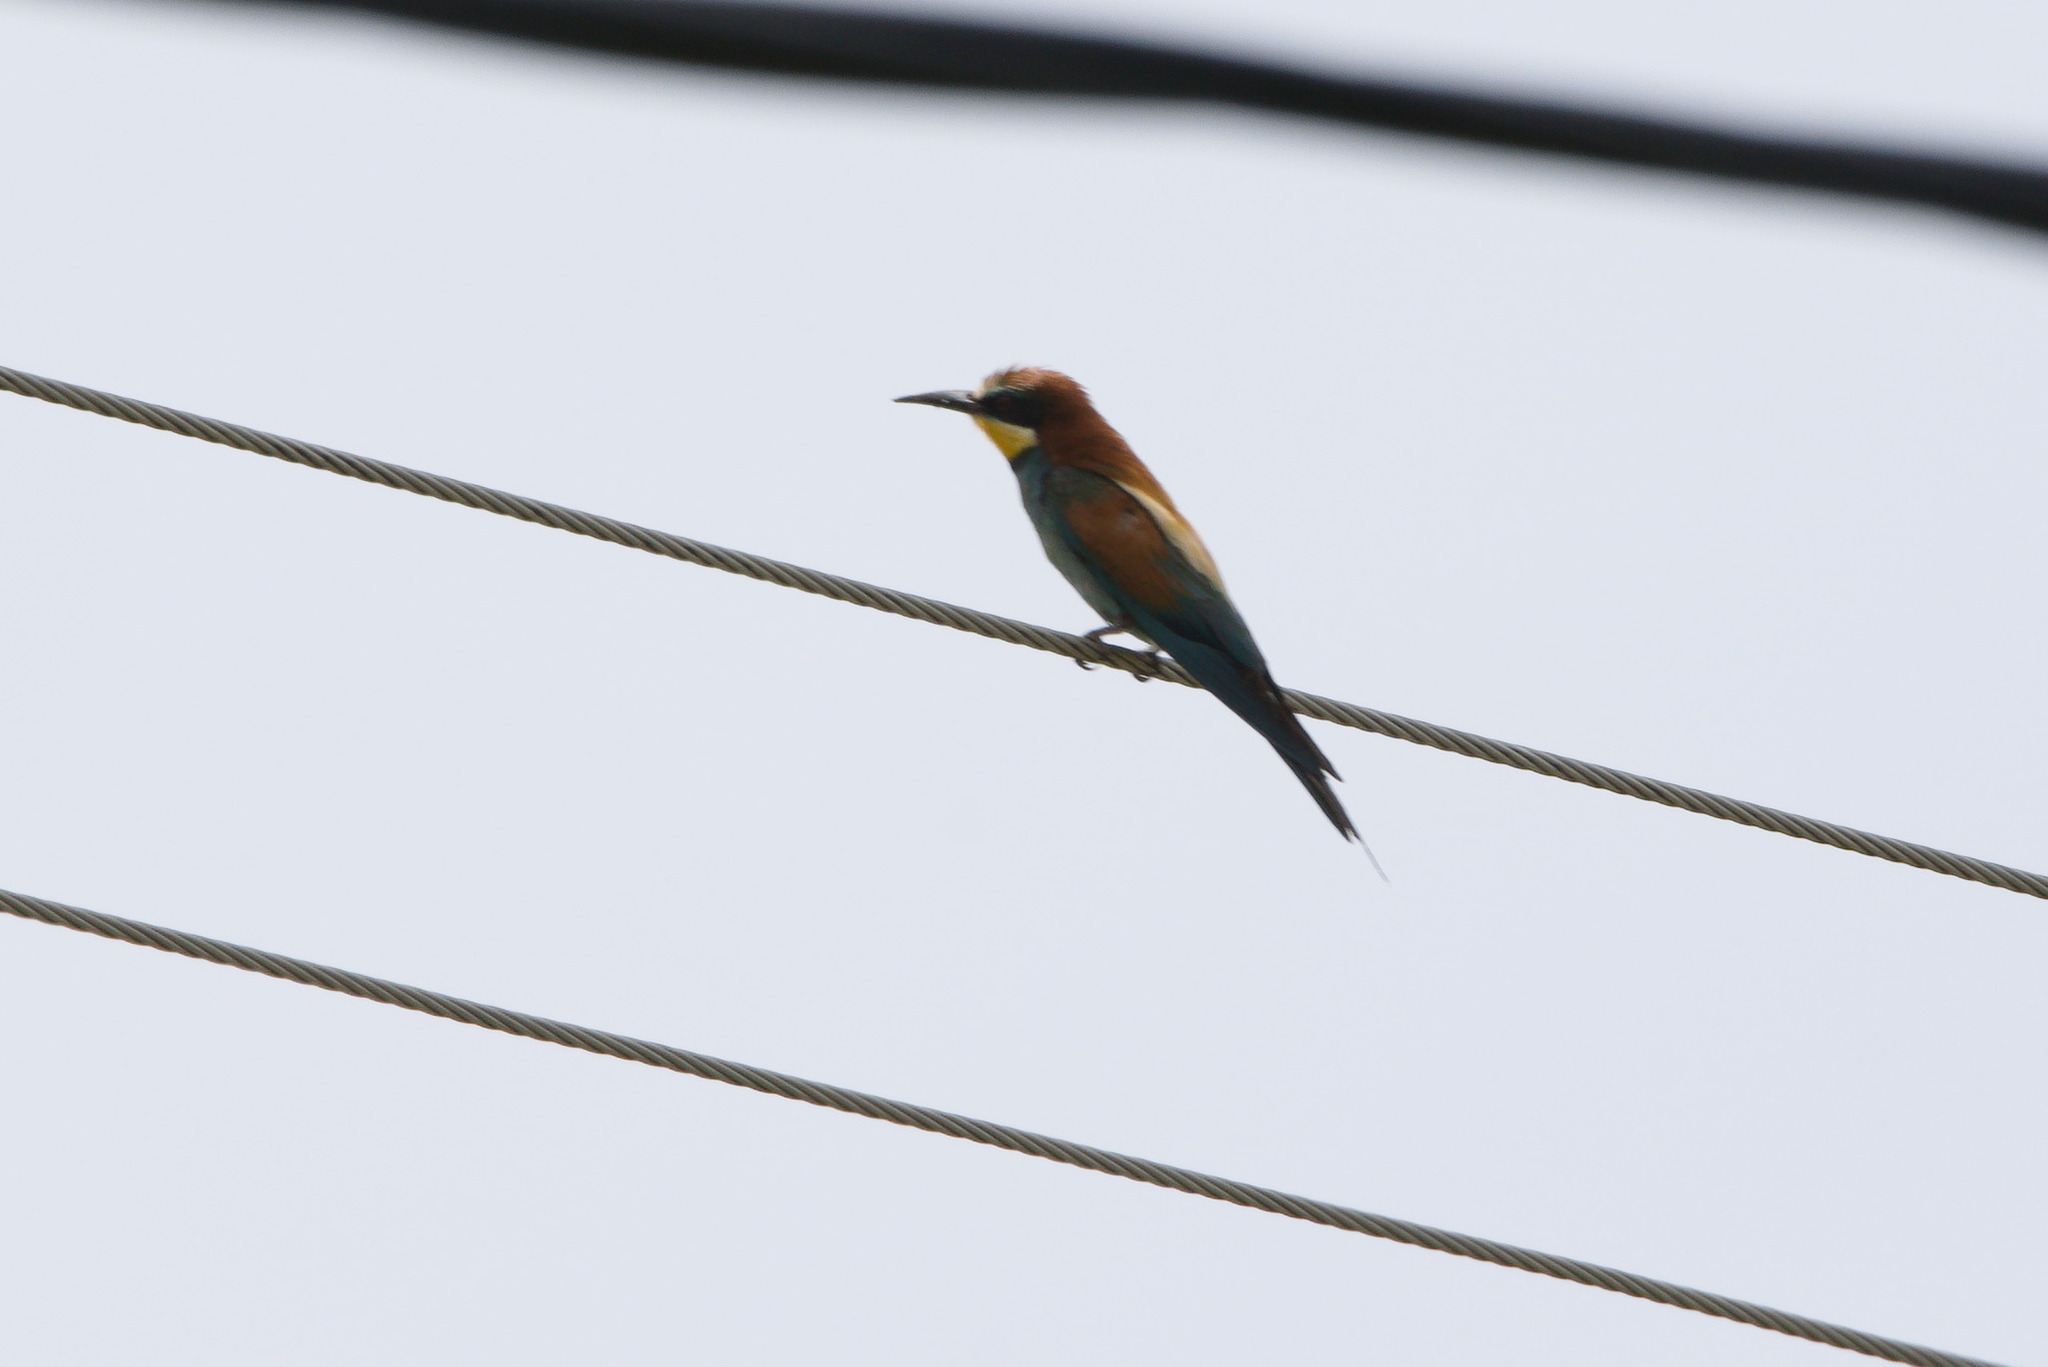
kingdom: Animalia
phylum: Chordata
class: Aves
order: Coraciiformes
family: Meropidae
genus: Merops
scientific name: Merops apiaster
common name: European bee-eater
